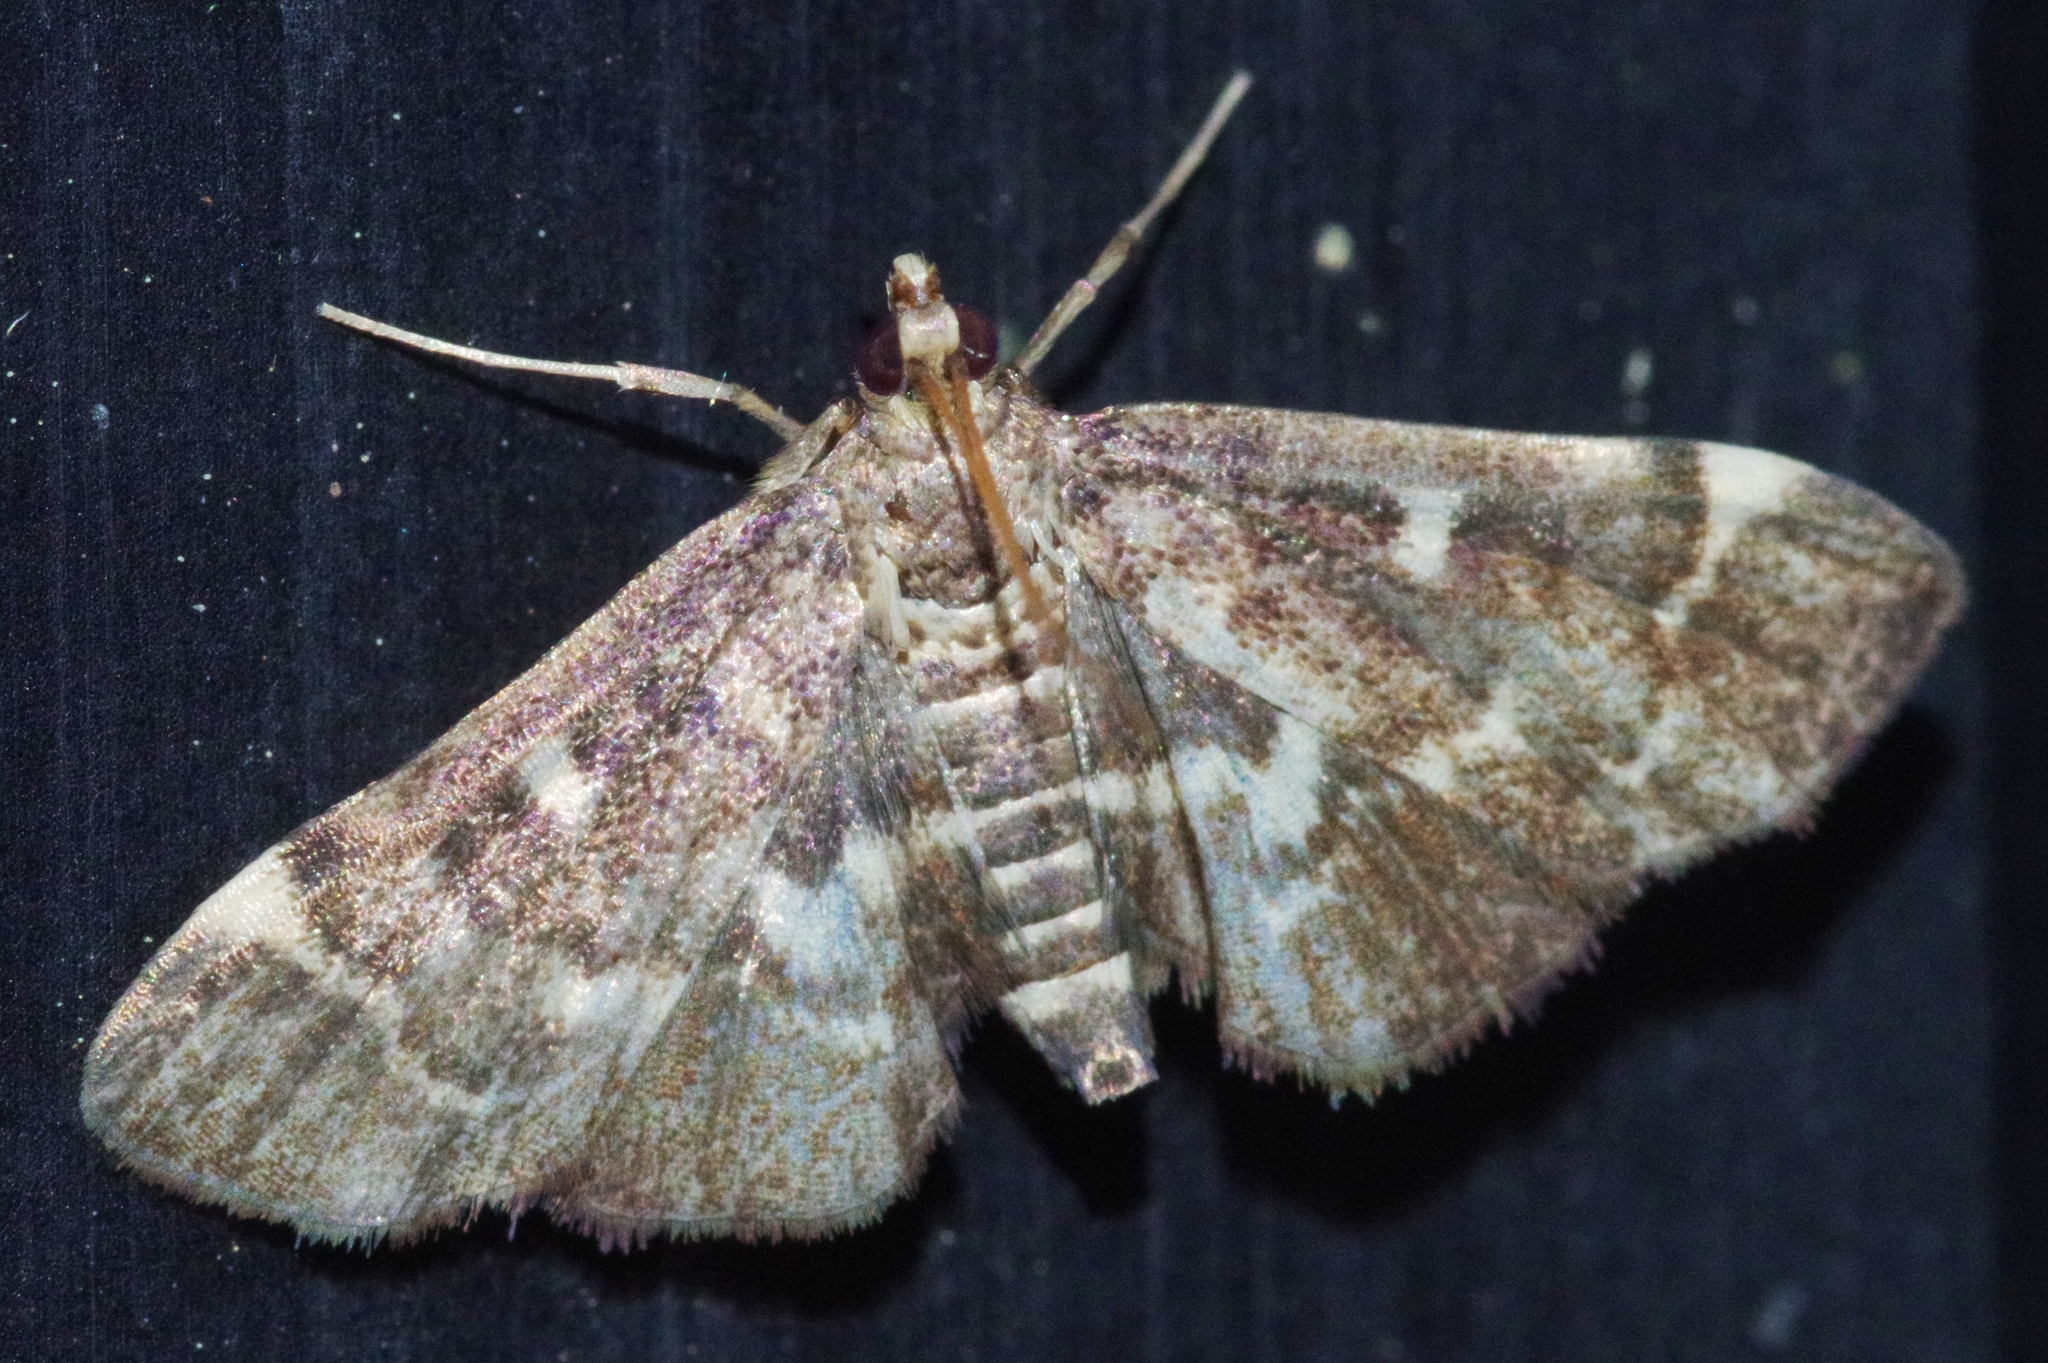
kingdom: Animalia
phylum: Arthropoda
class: Insecta
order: Lepidoptera
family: Crambidae
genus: Piletocera
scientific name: Piletocera sodalis
